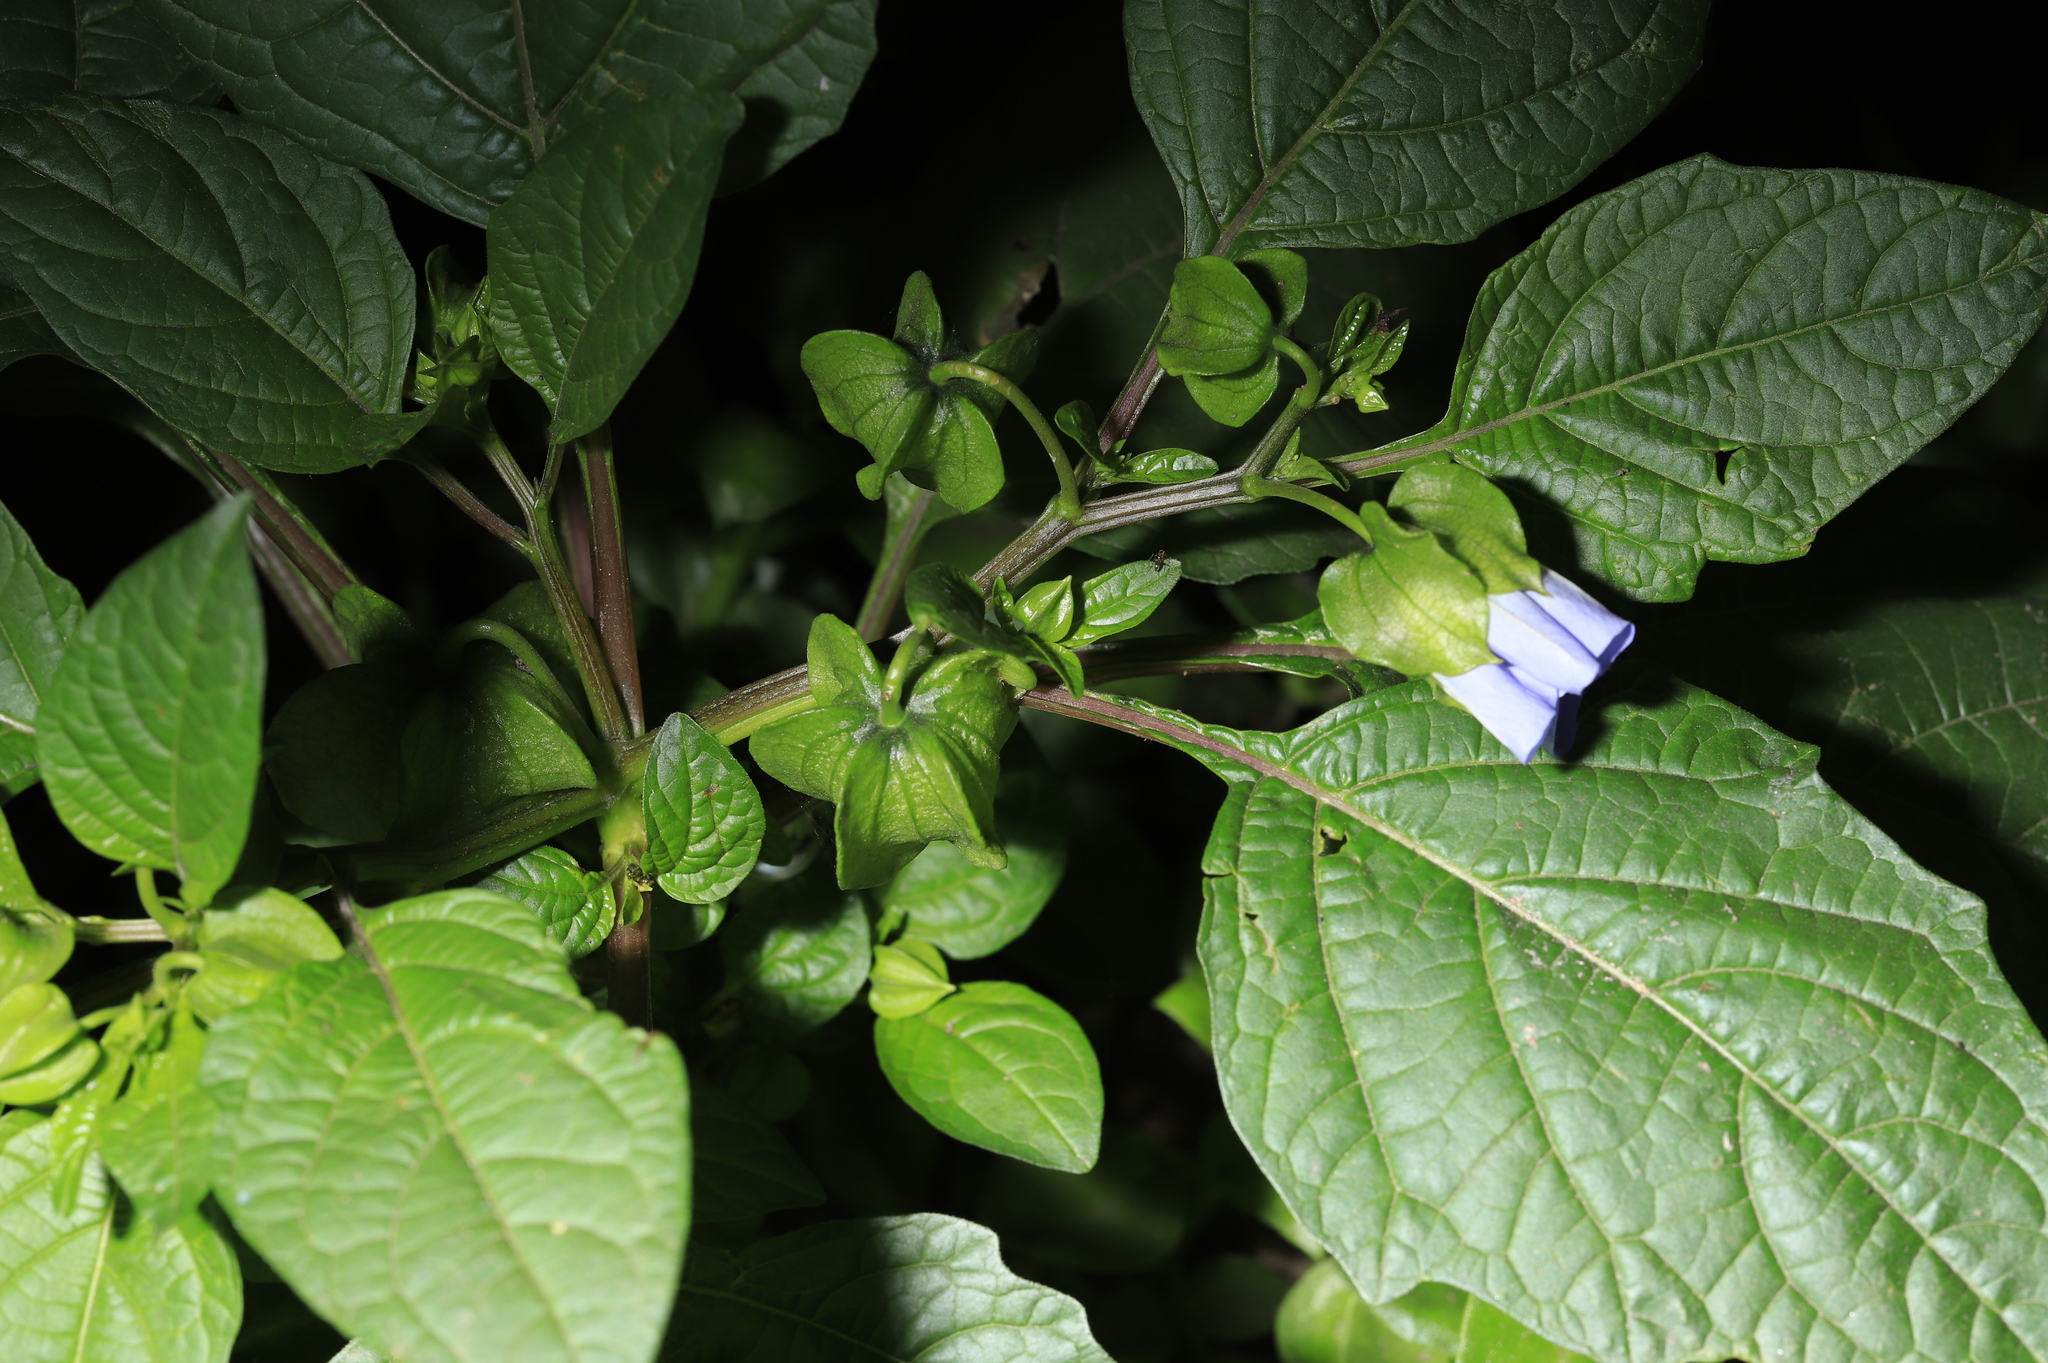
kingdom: Plantae
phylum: Tracheophyta
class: Magnoliopsida
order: Solanales
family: Solanaceae
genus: Nicandra
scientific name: Nicandra physalodes
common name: Apple-of-peru
